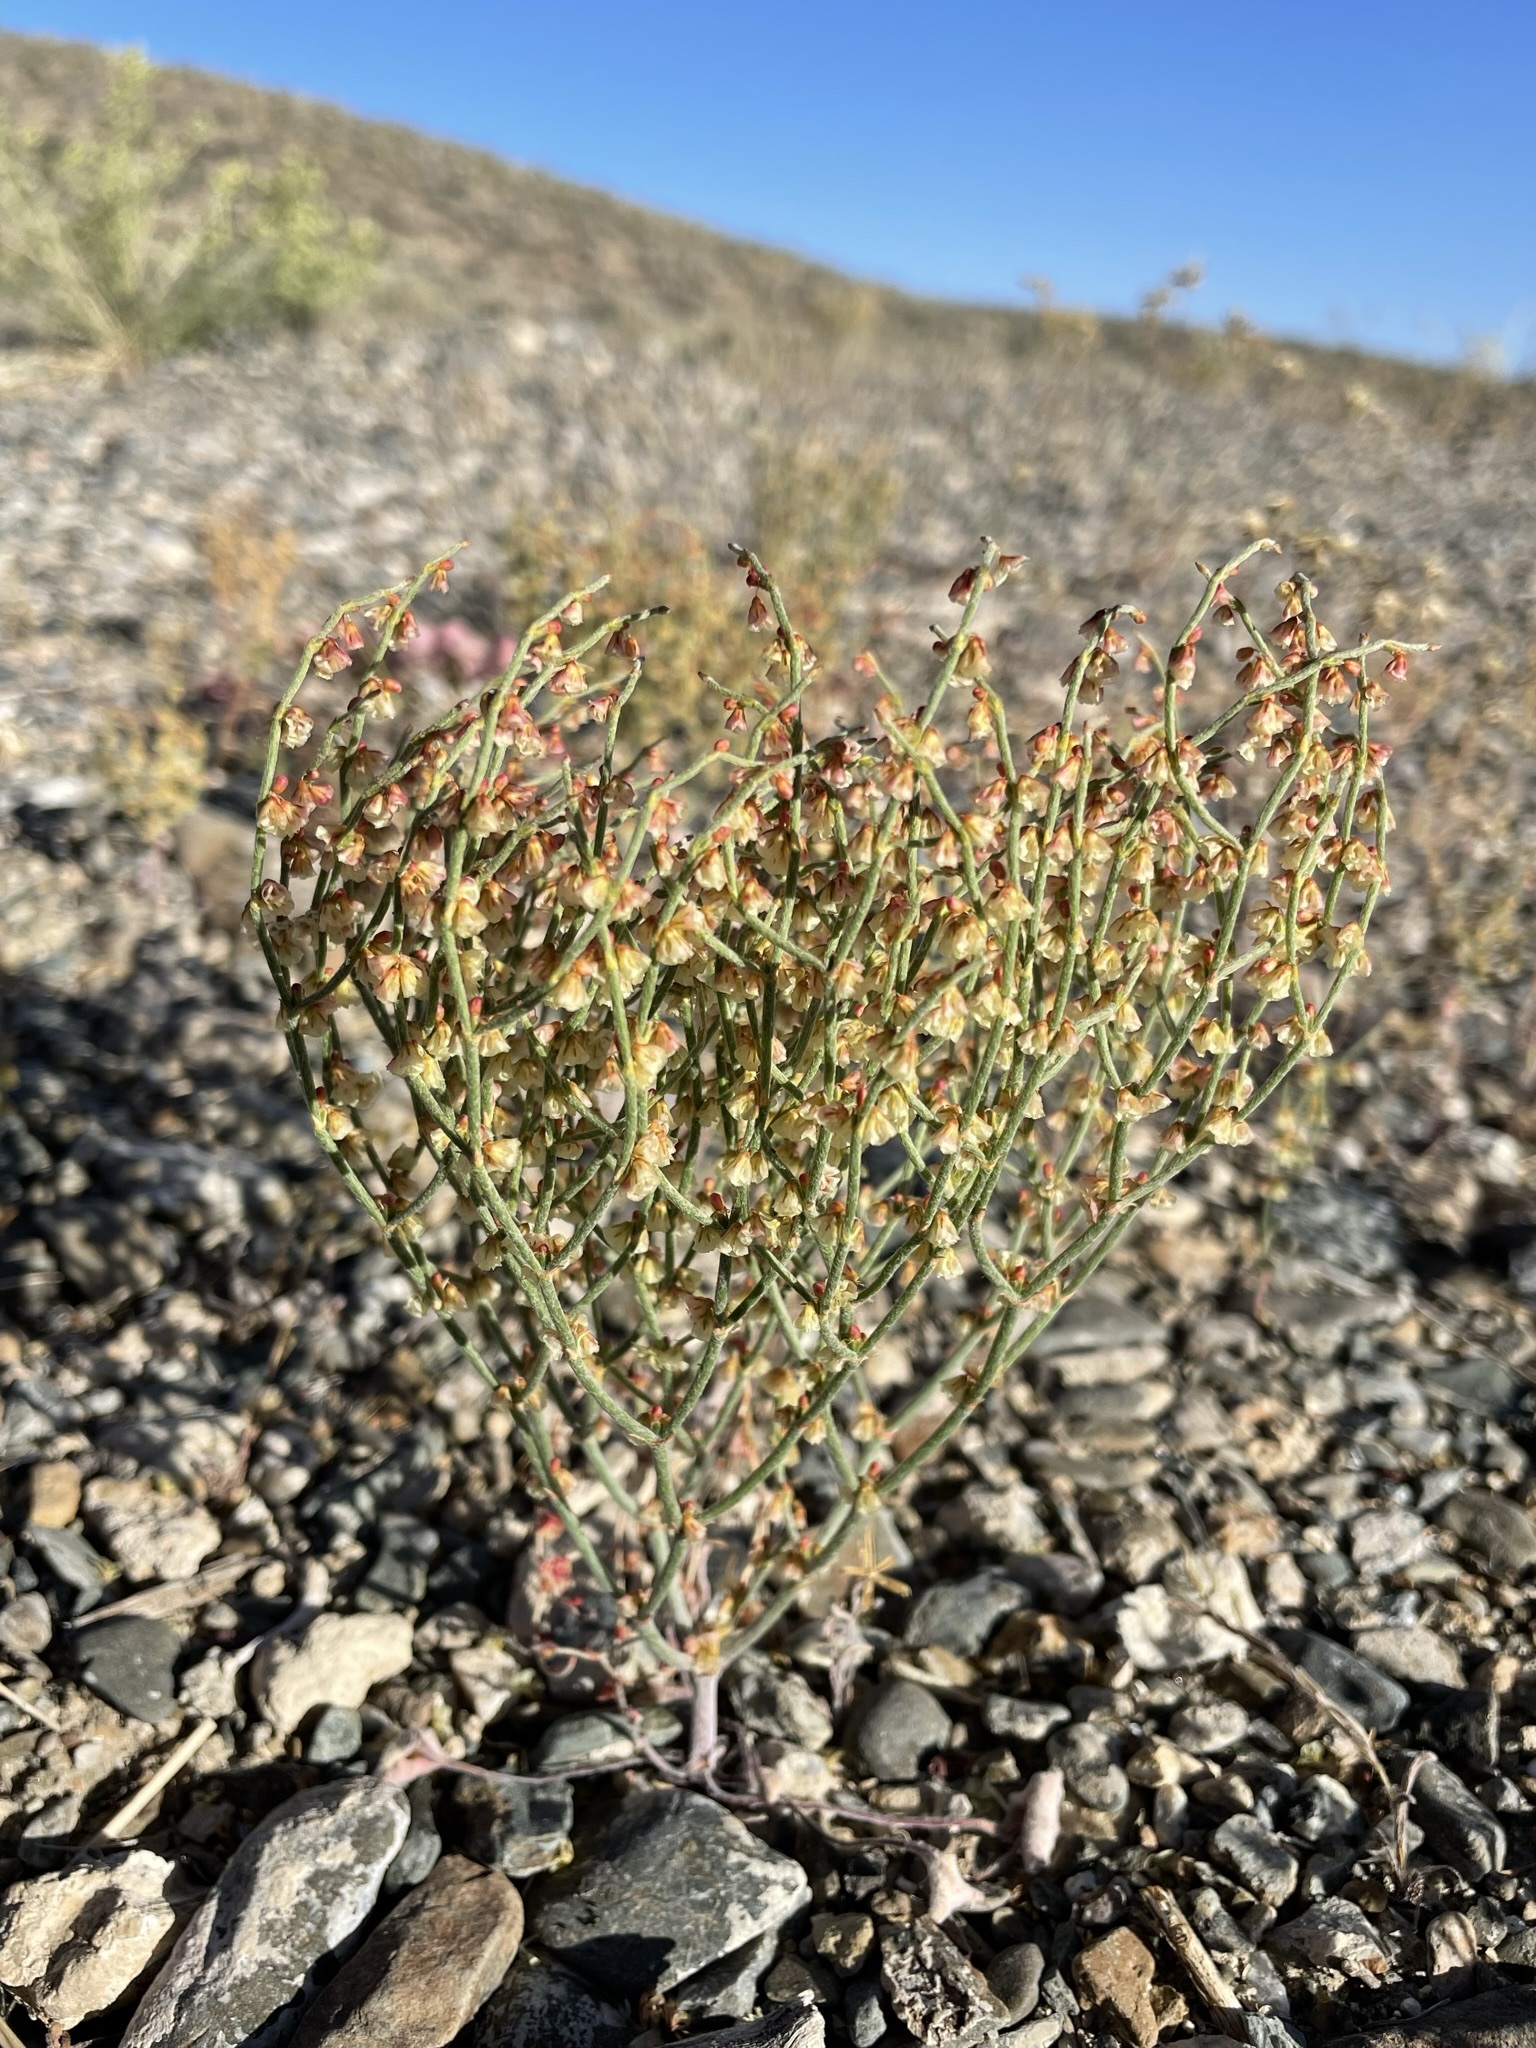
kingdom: Plantae
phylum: Tracheophyta
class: Magnoliopsida
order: Caryophyllales
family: Polygonaceae
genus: Eriogonum
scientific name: Eriogonum nidularium
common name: Bird's-nest wild buckwheat
